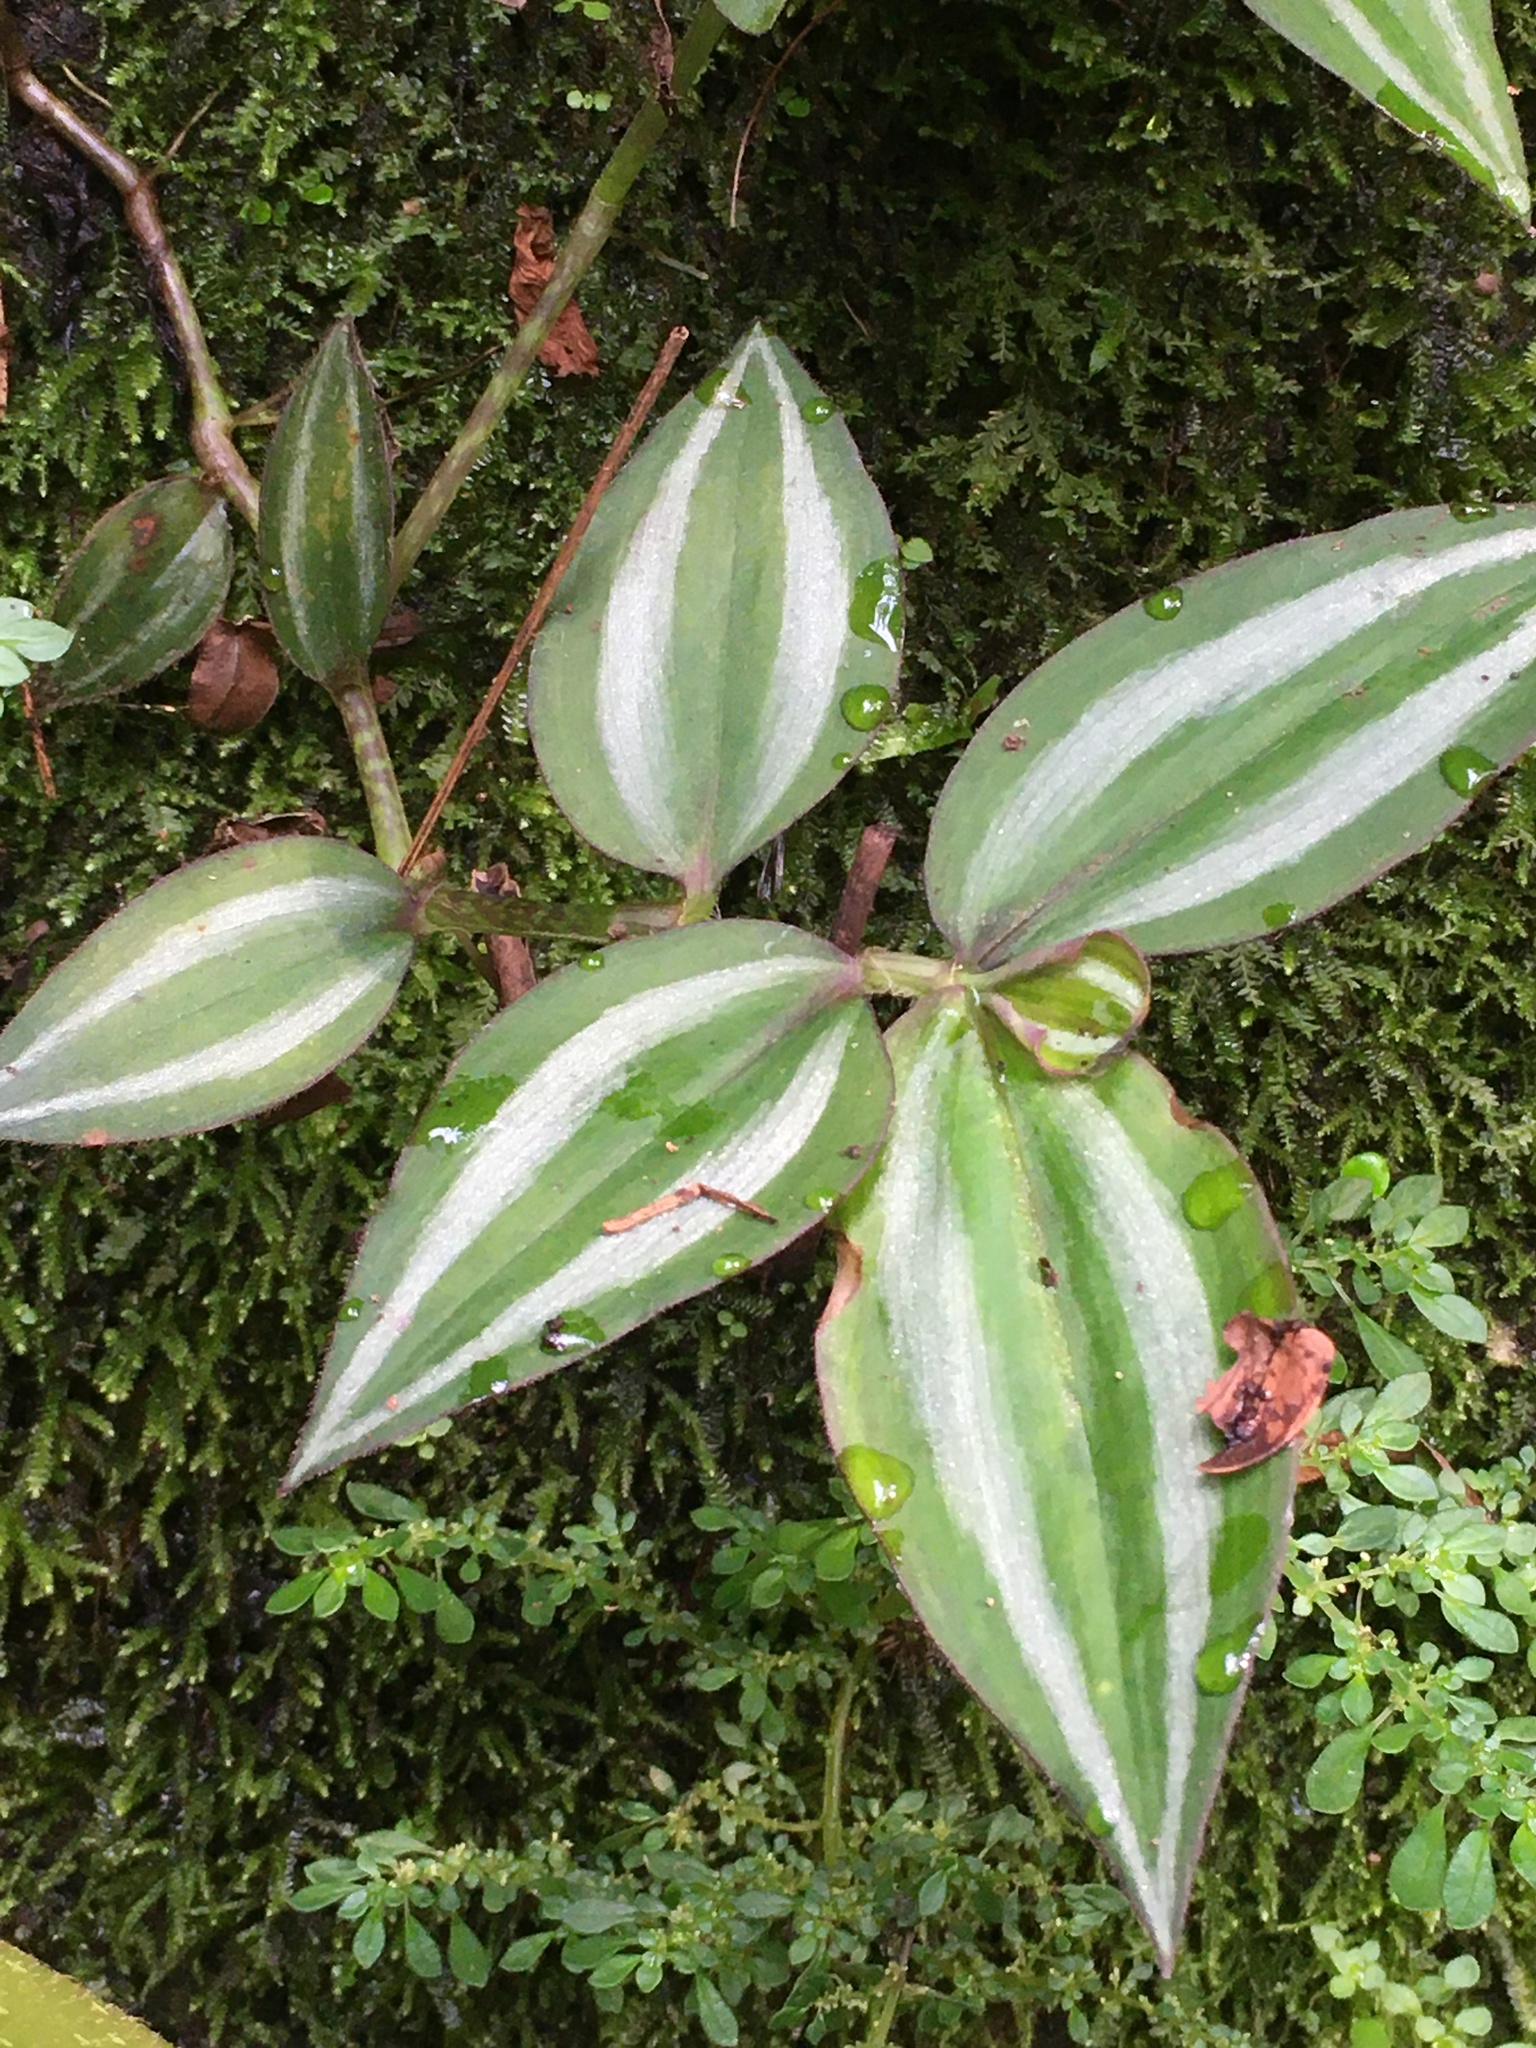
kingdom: Plantae
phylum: Tracheophyta
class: Liliopsida
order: Commelinales
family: Commelinaceae
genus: Tradescantia
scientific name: Tradescantia zebrina
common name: Inchplant
